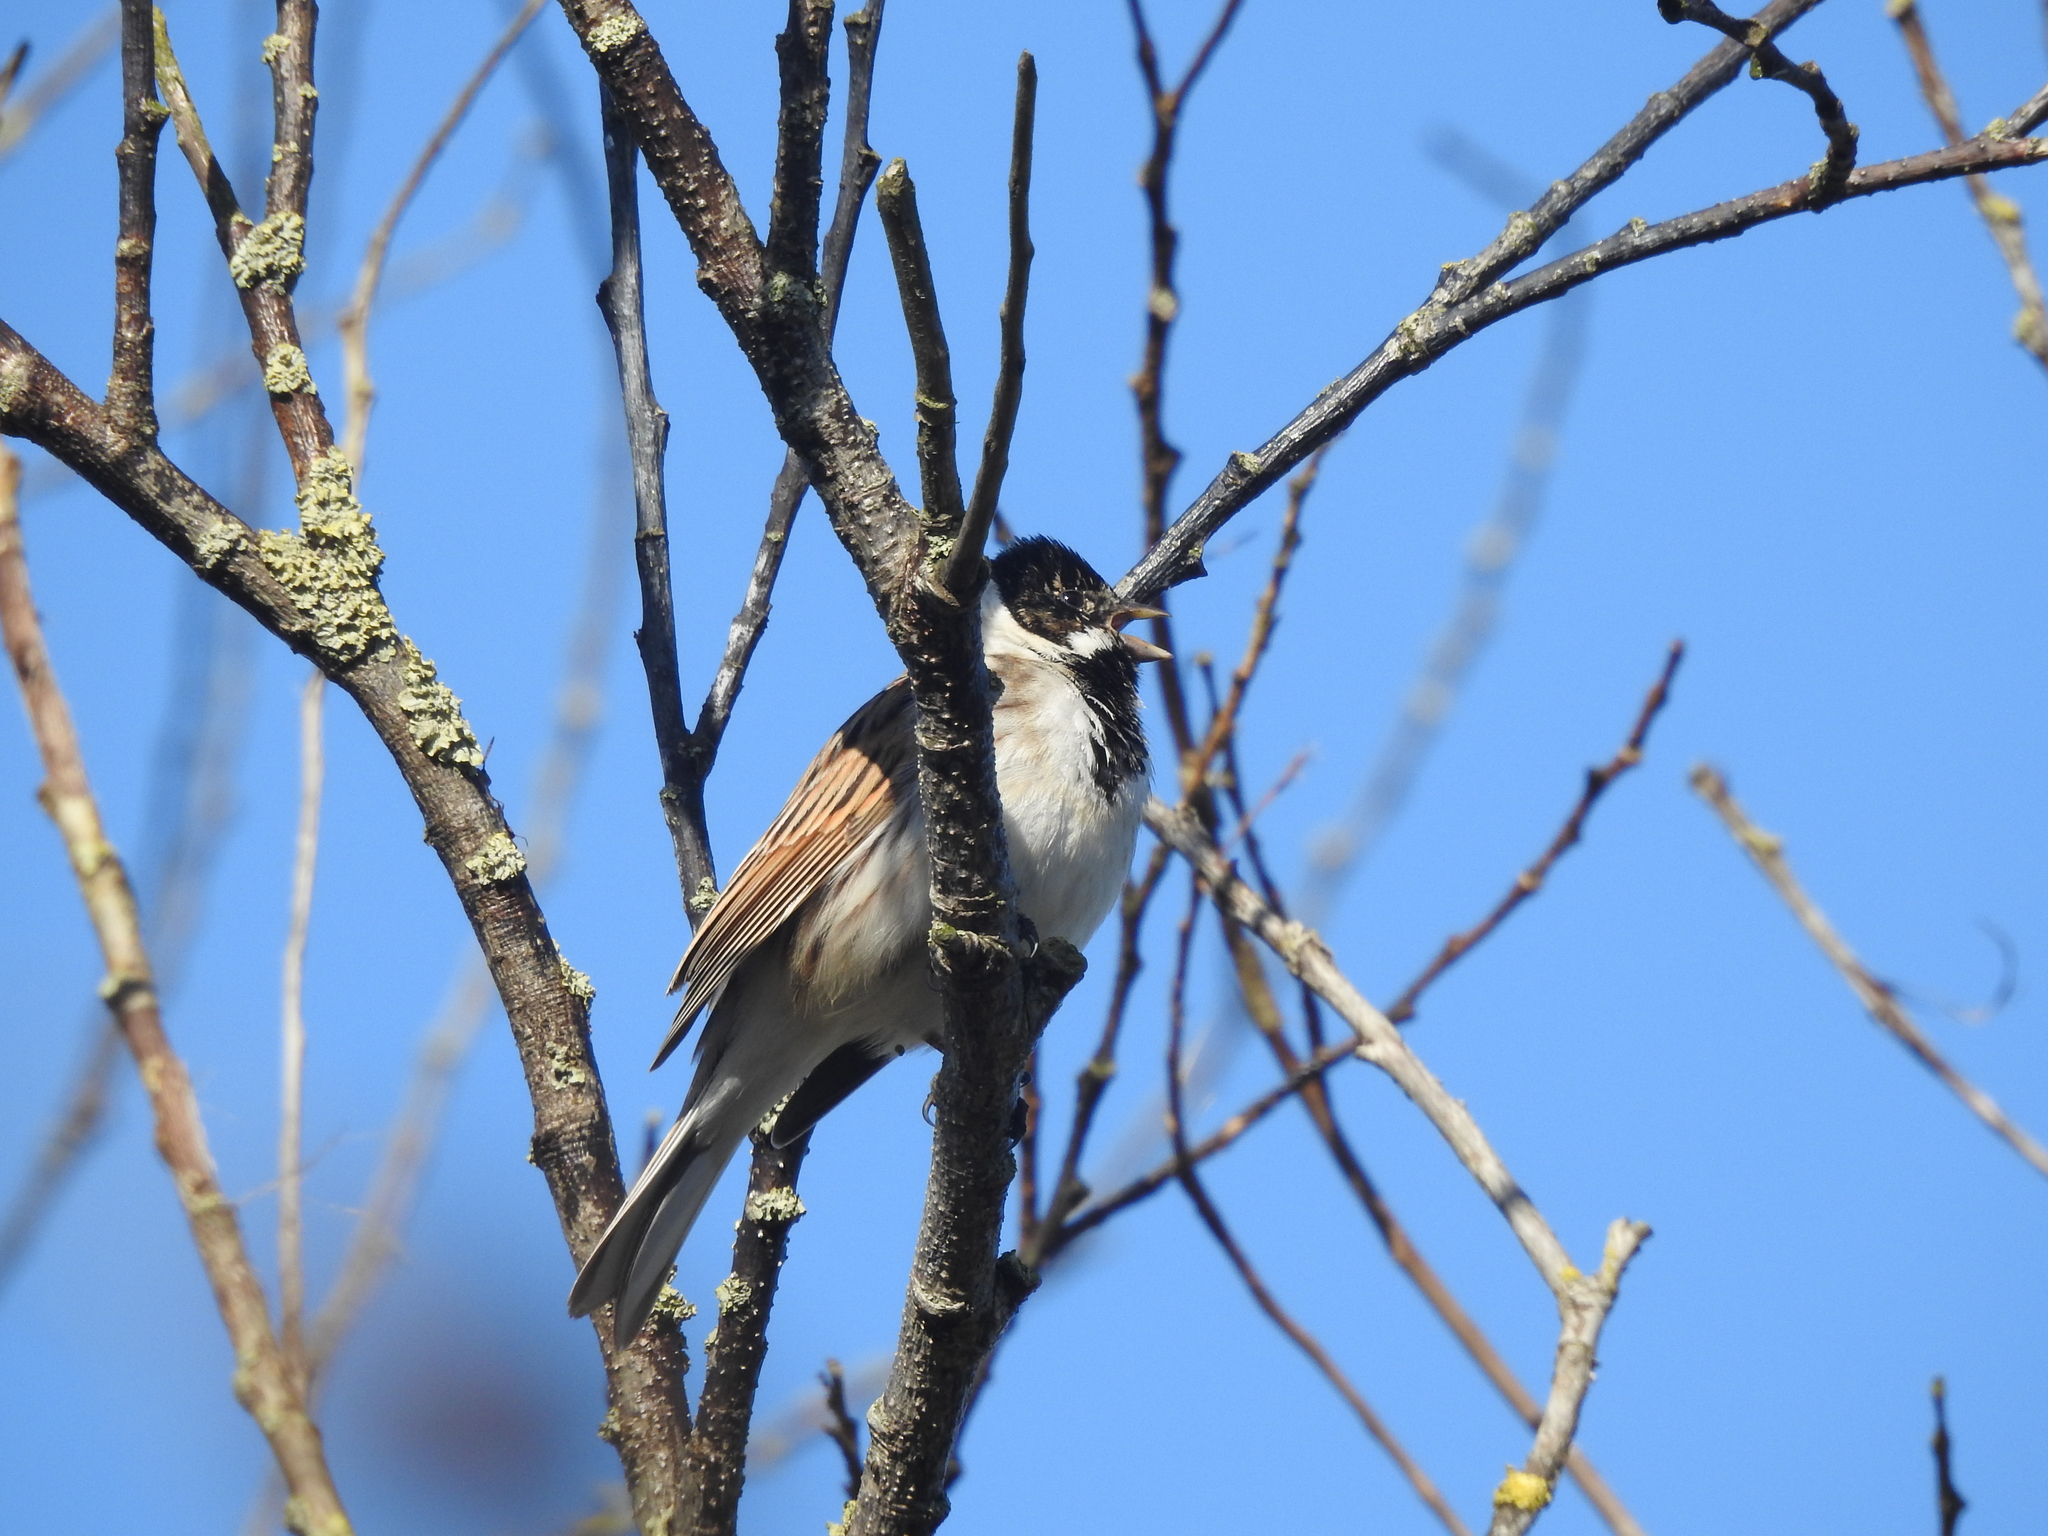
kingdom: Animalia
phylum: Chordata
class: Aves
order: Passeriformes
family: Emberizidae
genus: Emberiza
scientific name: Emberiza schoeniclus
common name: Reed bunting
